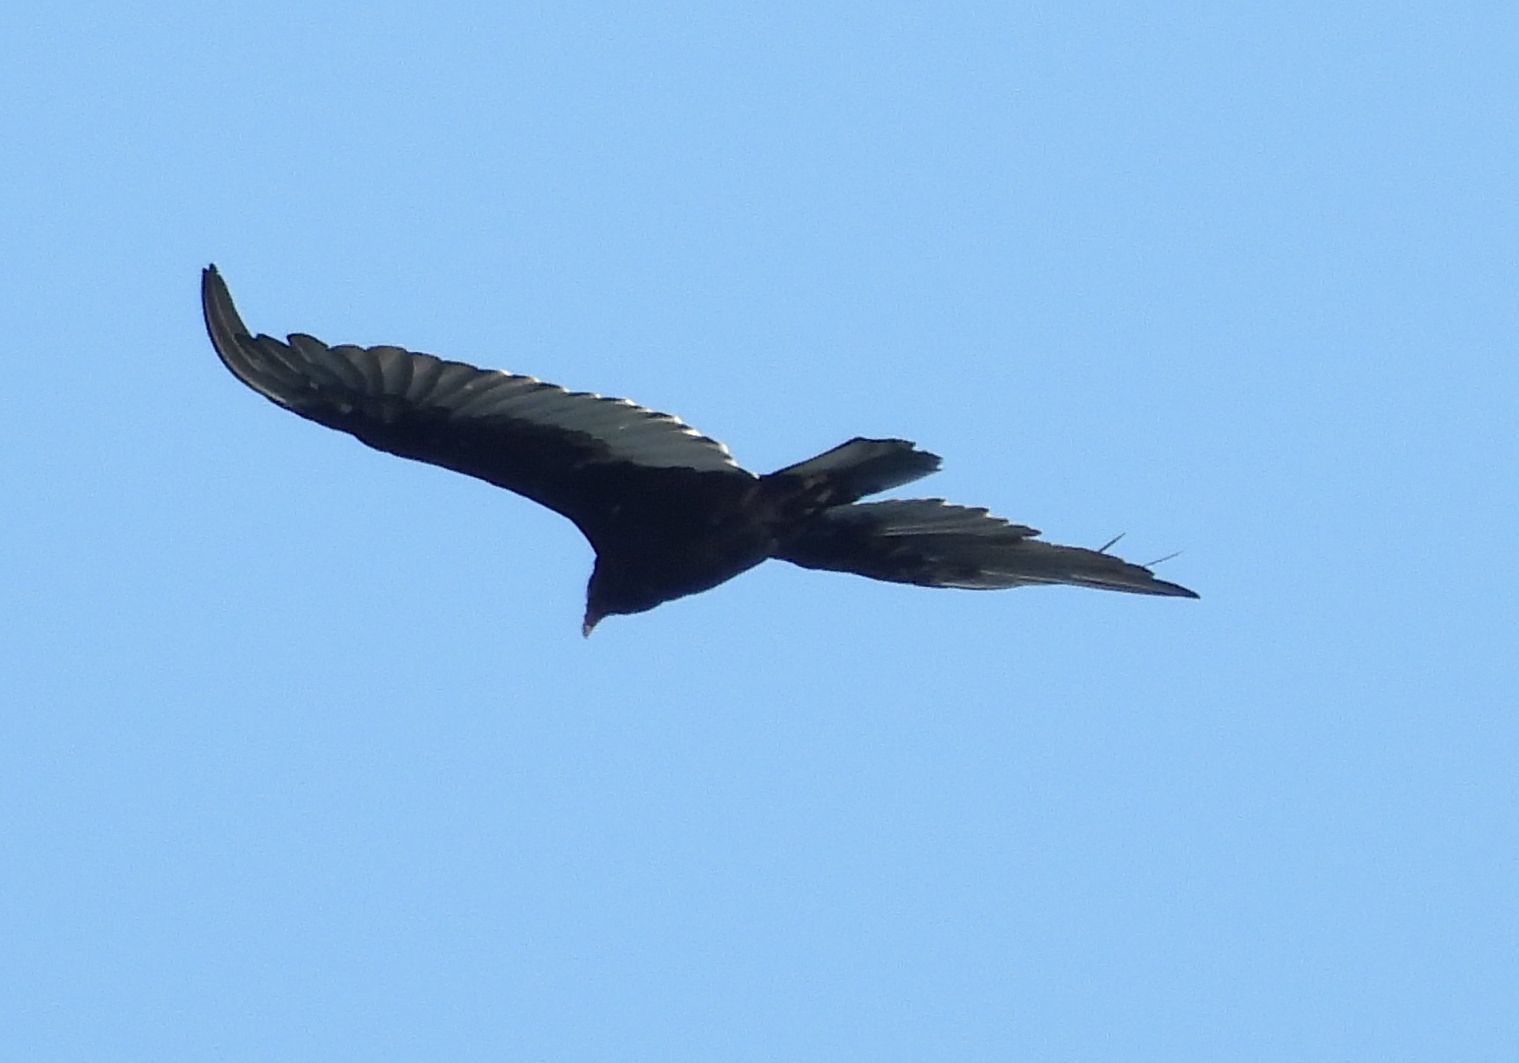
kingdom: Animalia
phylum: Chordata
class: Aves
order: Accipitriformes
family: Cathartidae
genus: Cathartes
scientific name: Cathartes aura
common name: Turkey vulture
